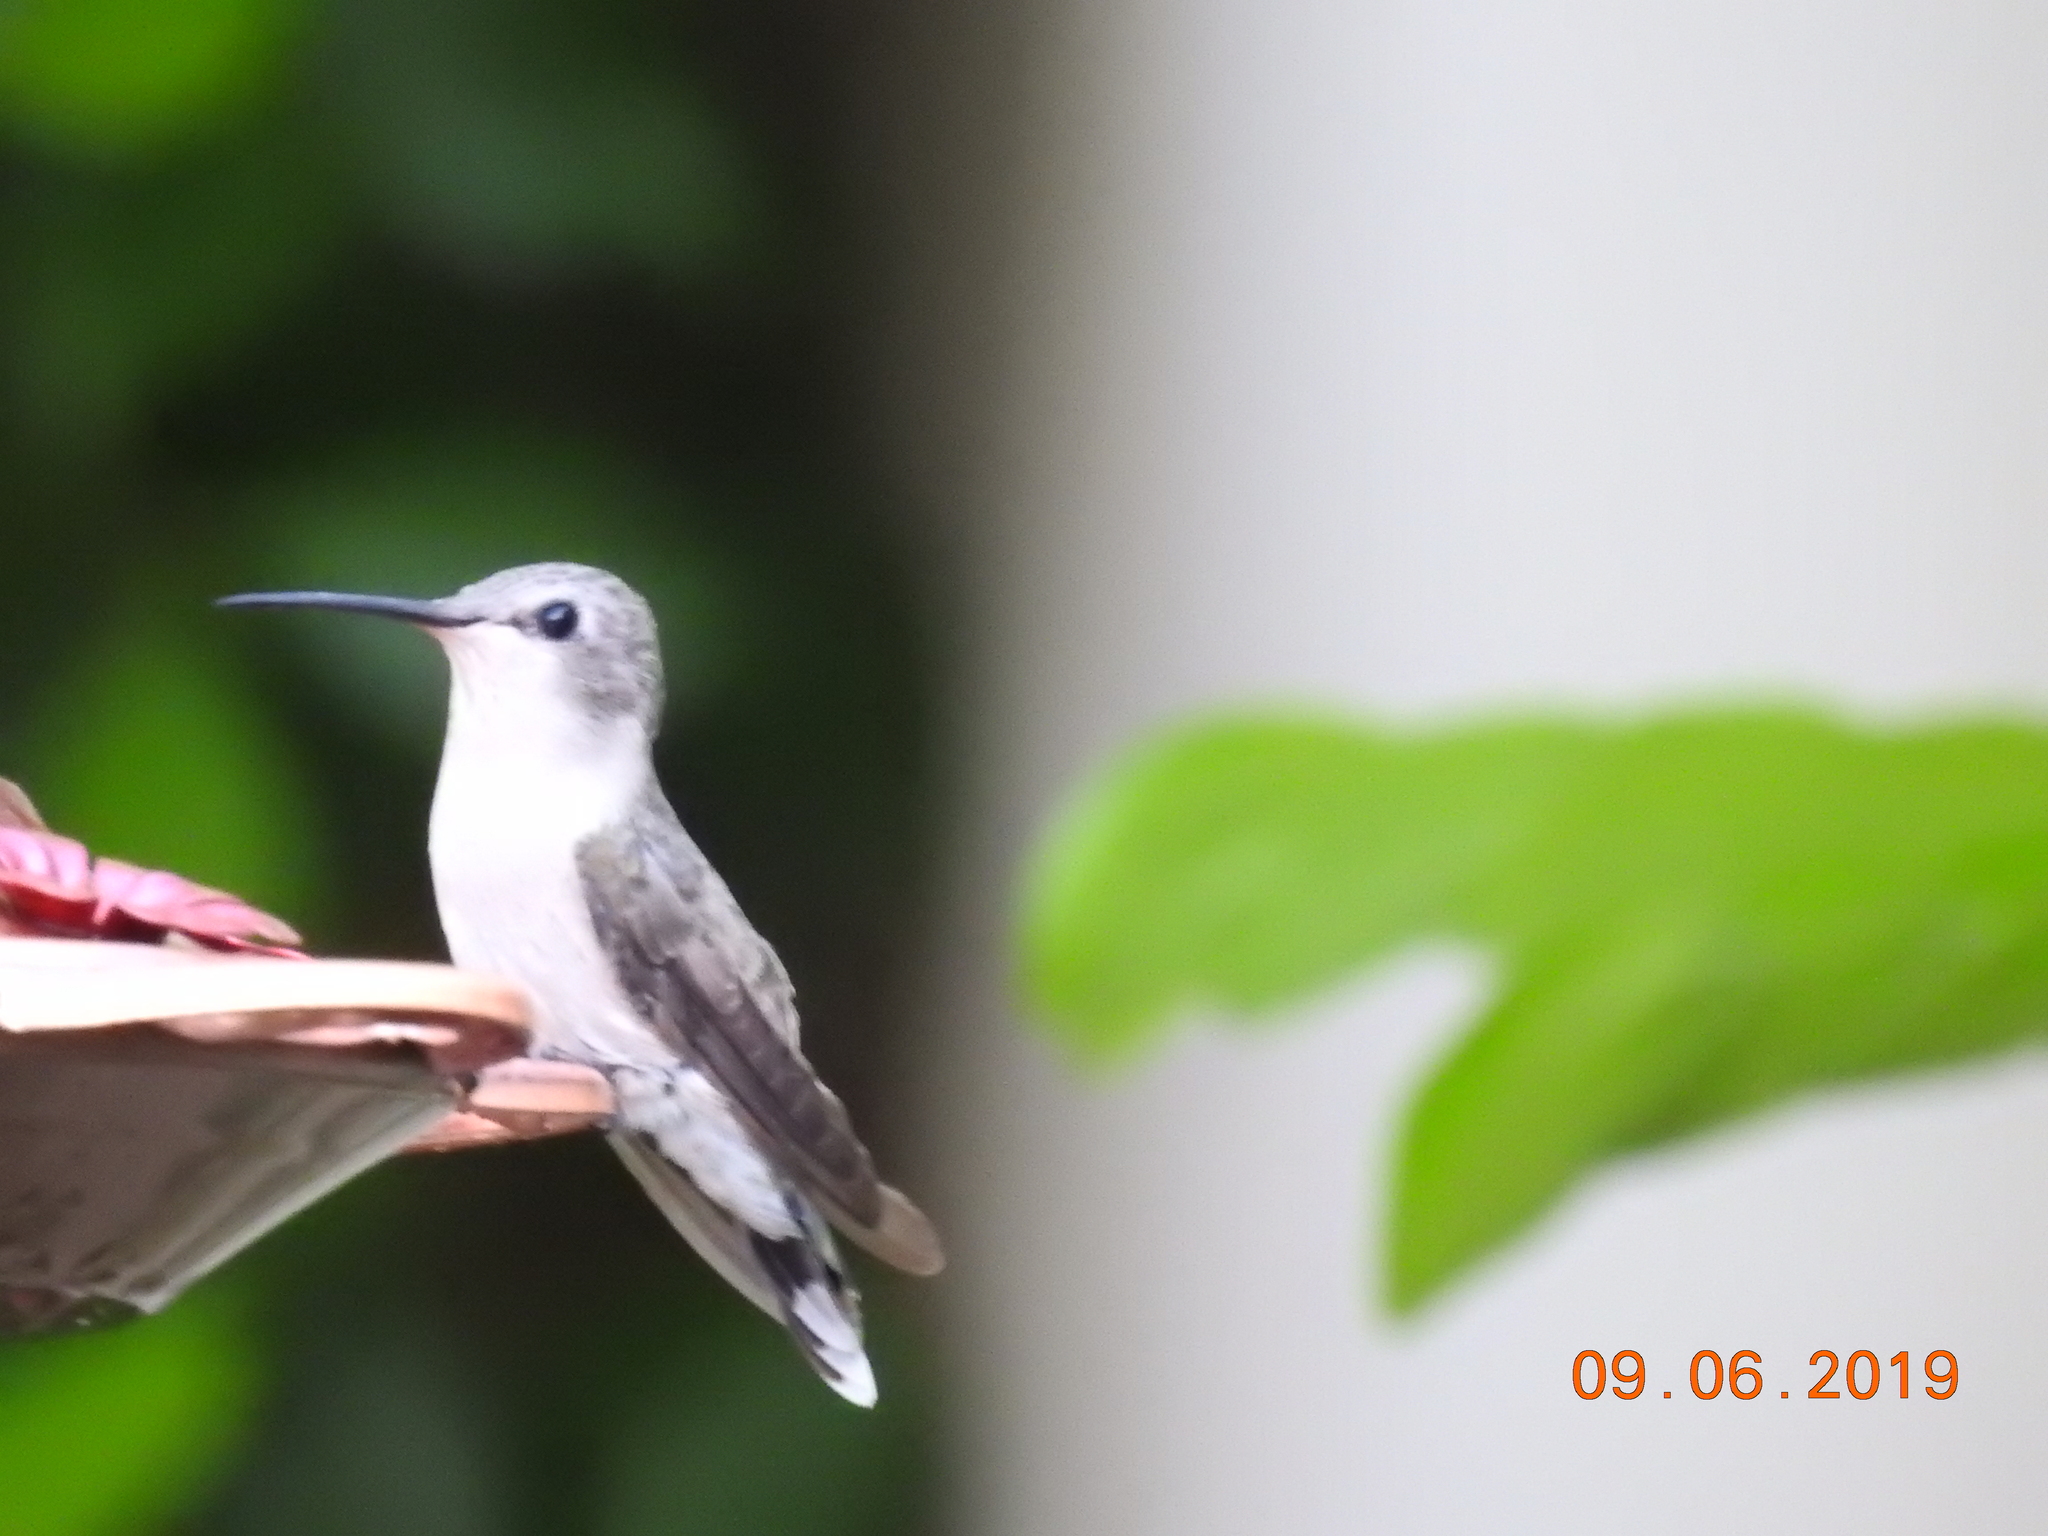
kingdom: Animalia
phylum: Chordata
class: Aves
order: Apodiformes
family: Trochilidae
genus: Calypte
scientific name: Calypte costae
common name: Costa's hummingbird
